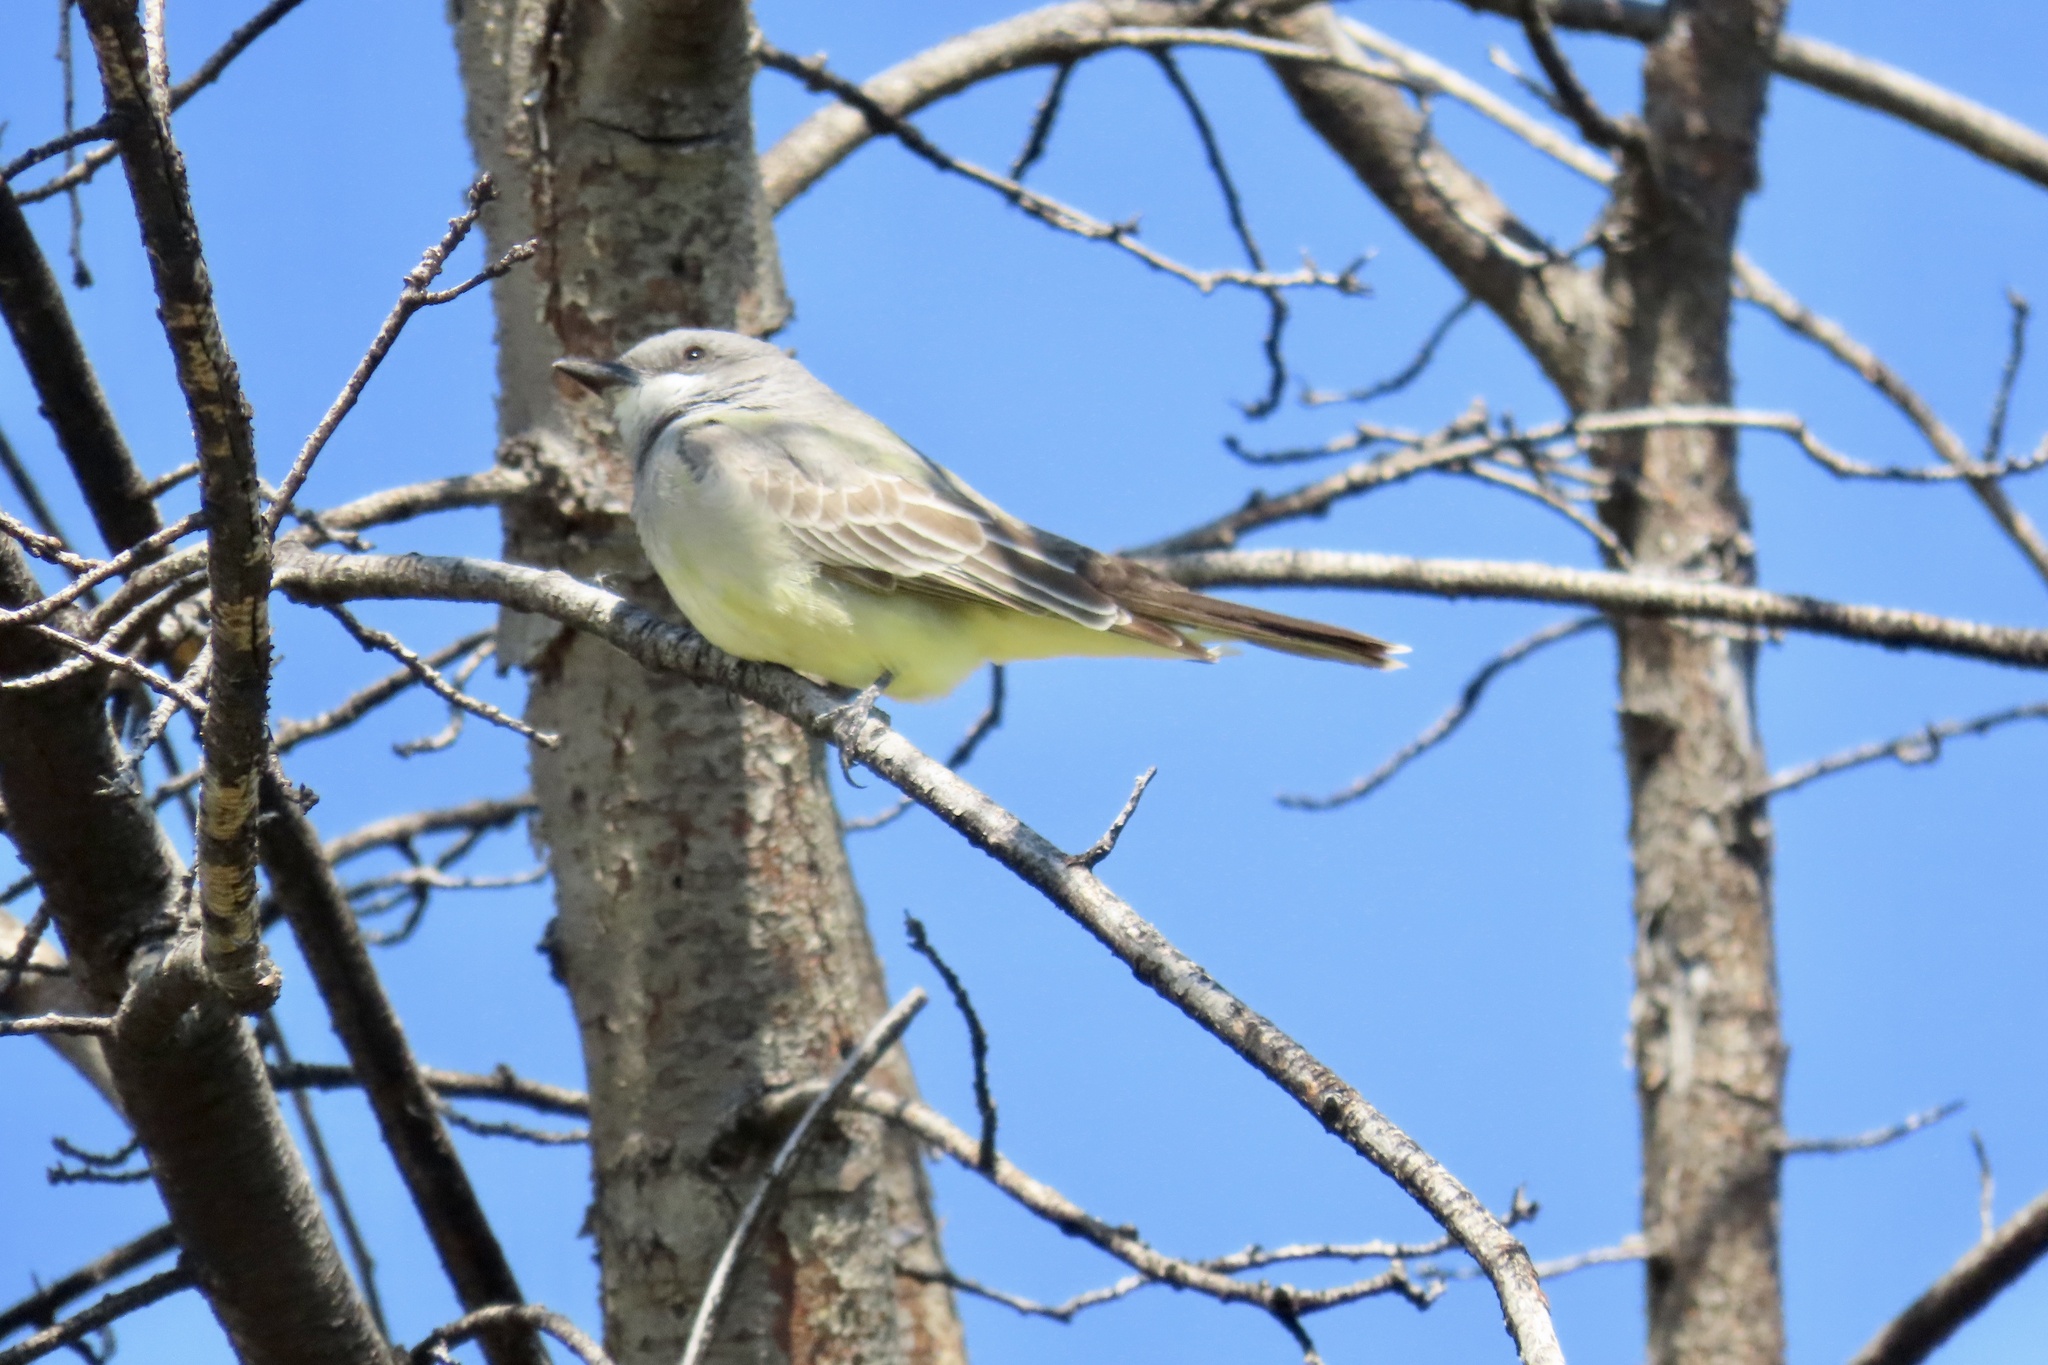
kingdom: Animalia
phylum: Chordata
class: Aves
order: Passeriformes
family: Tyrannidae
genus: Tyrannus
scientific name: Tyrannus verticalis
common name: Western kingbird
